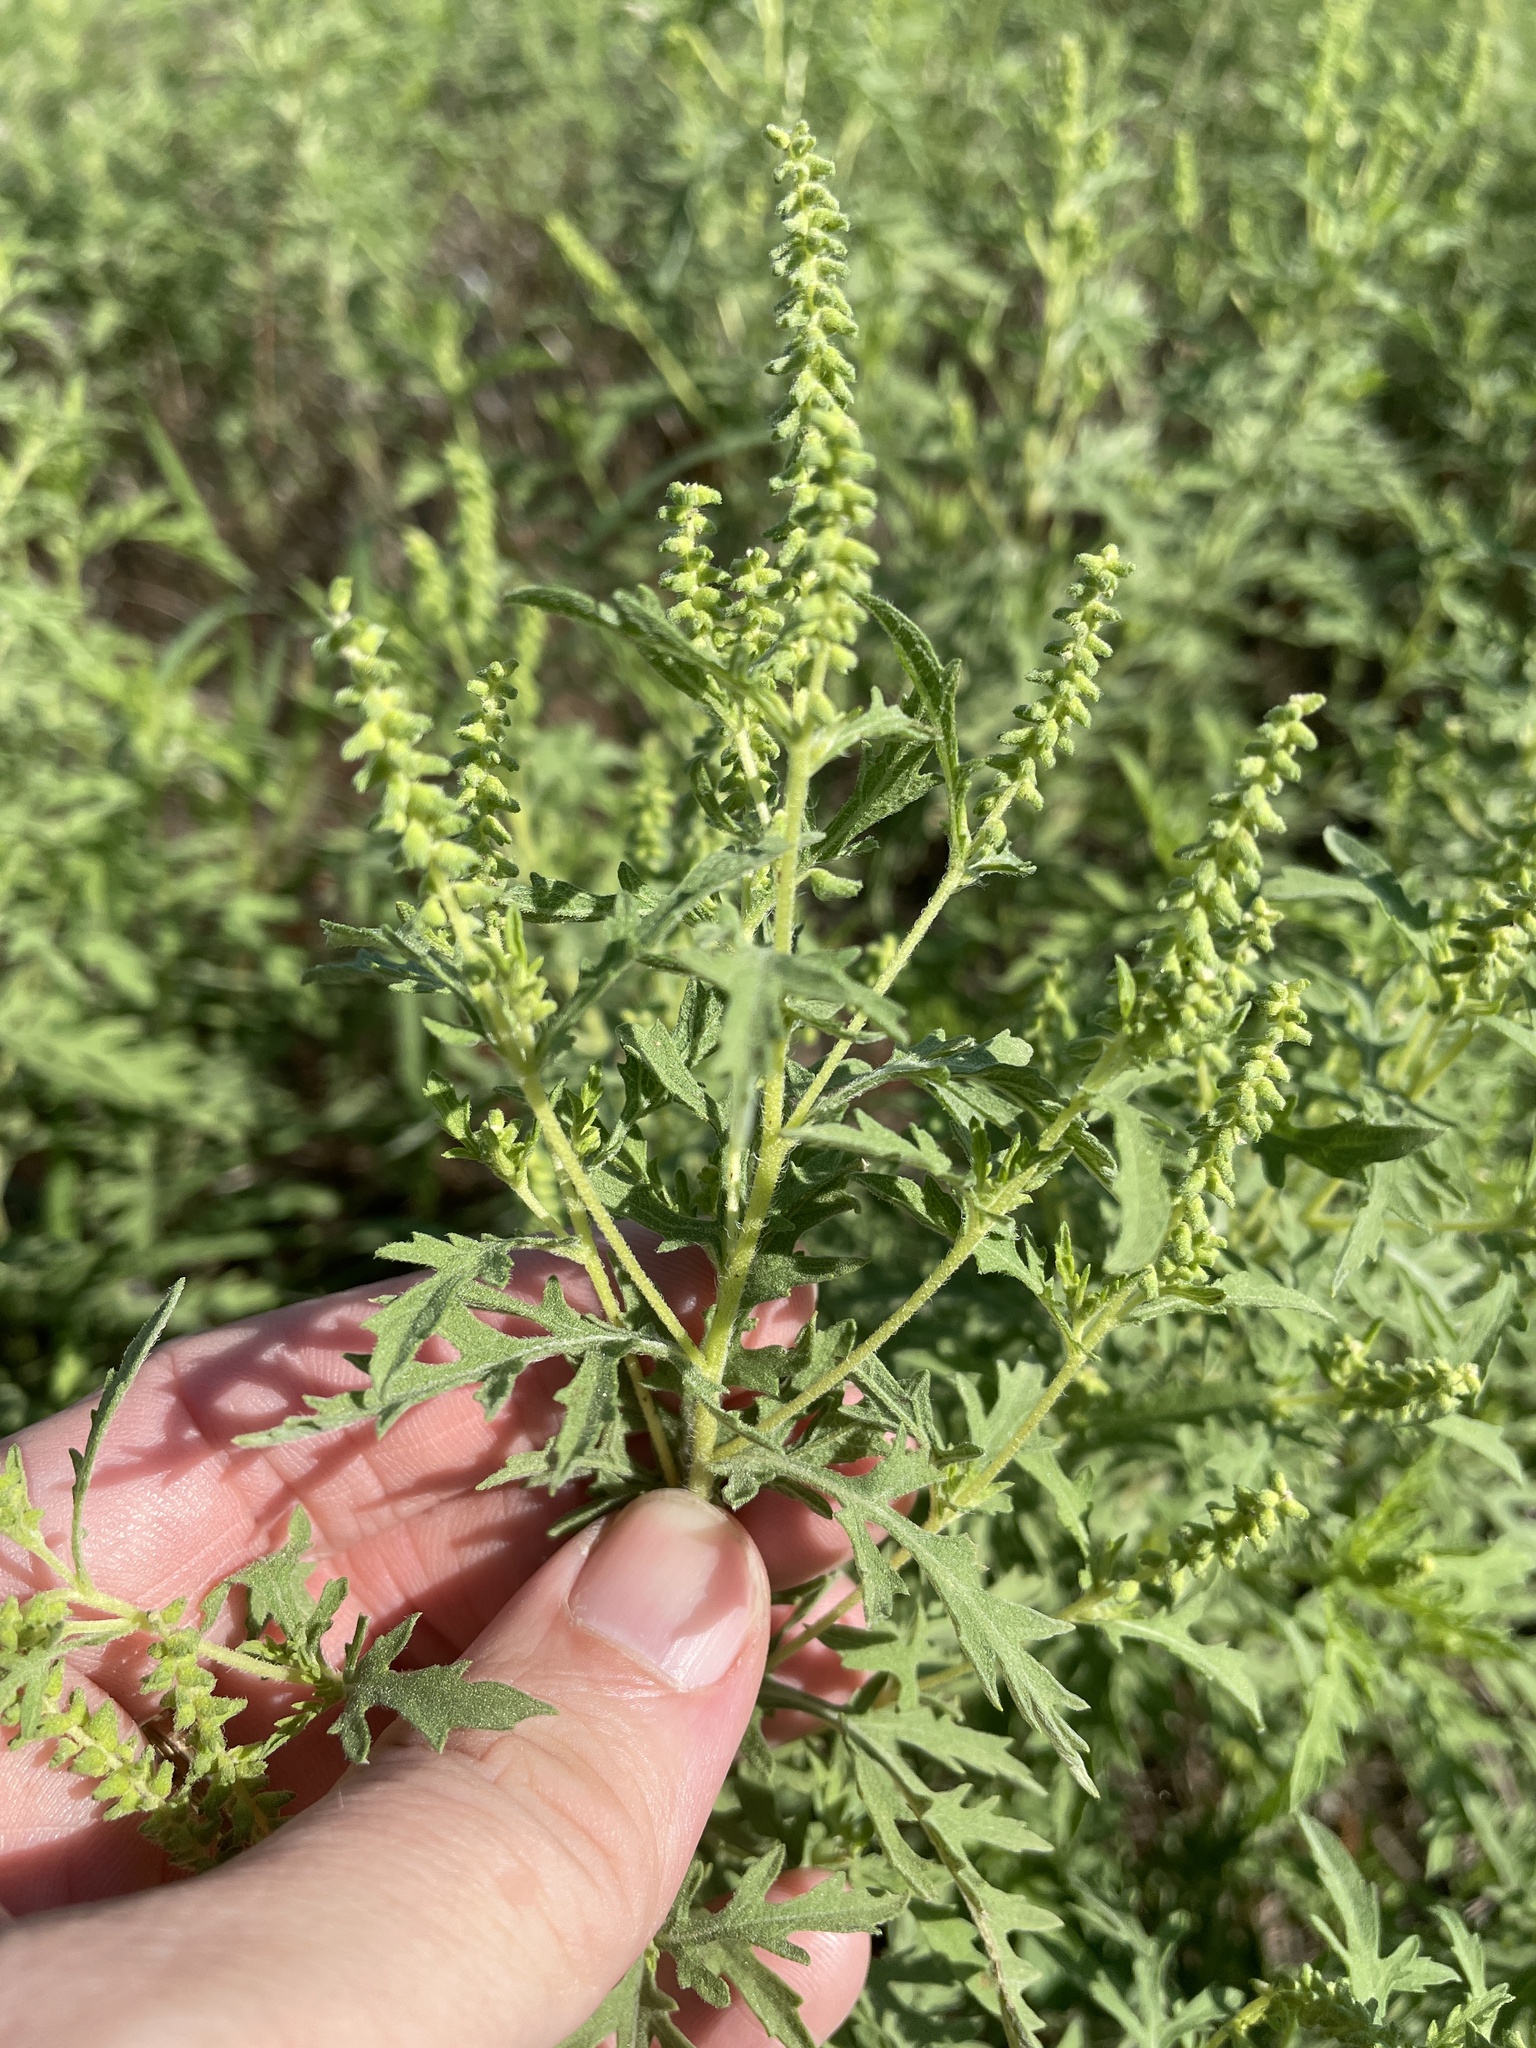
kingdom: Plantae
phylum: Tracheophyta
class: Magnoliopsida
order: Asterales
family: Asteraceae
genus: Ambrosia
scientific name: Ambrosia psilostachya
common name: Perennial ragweed
